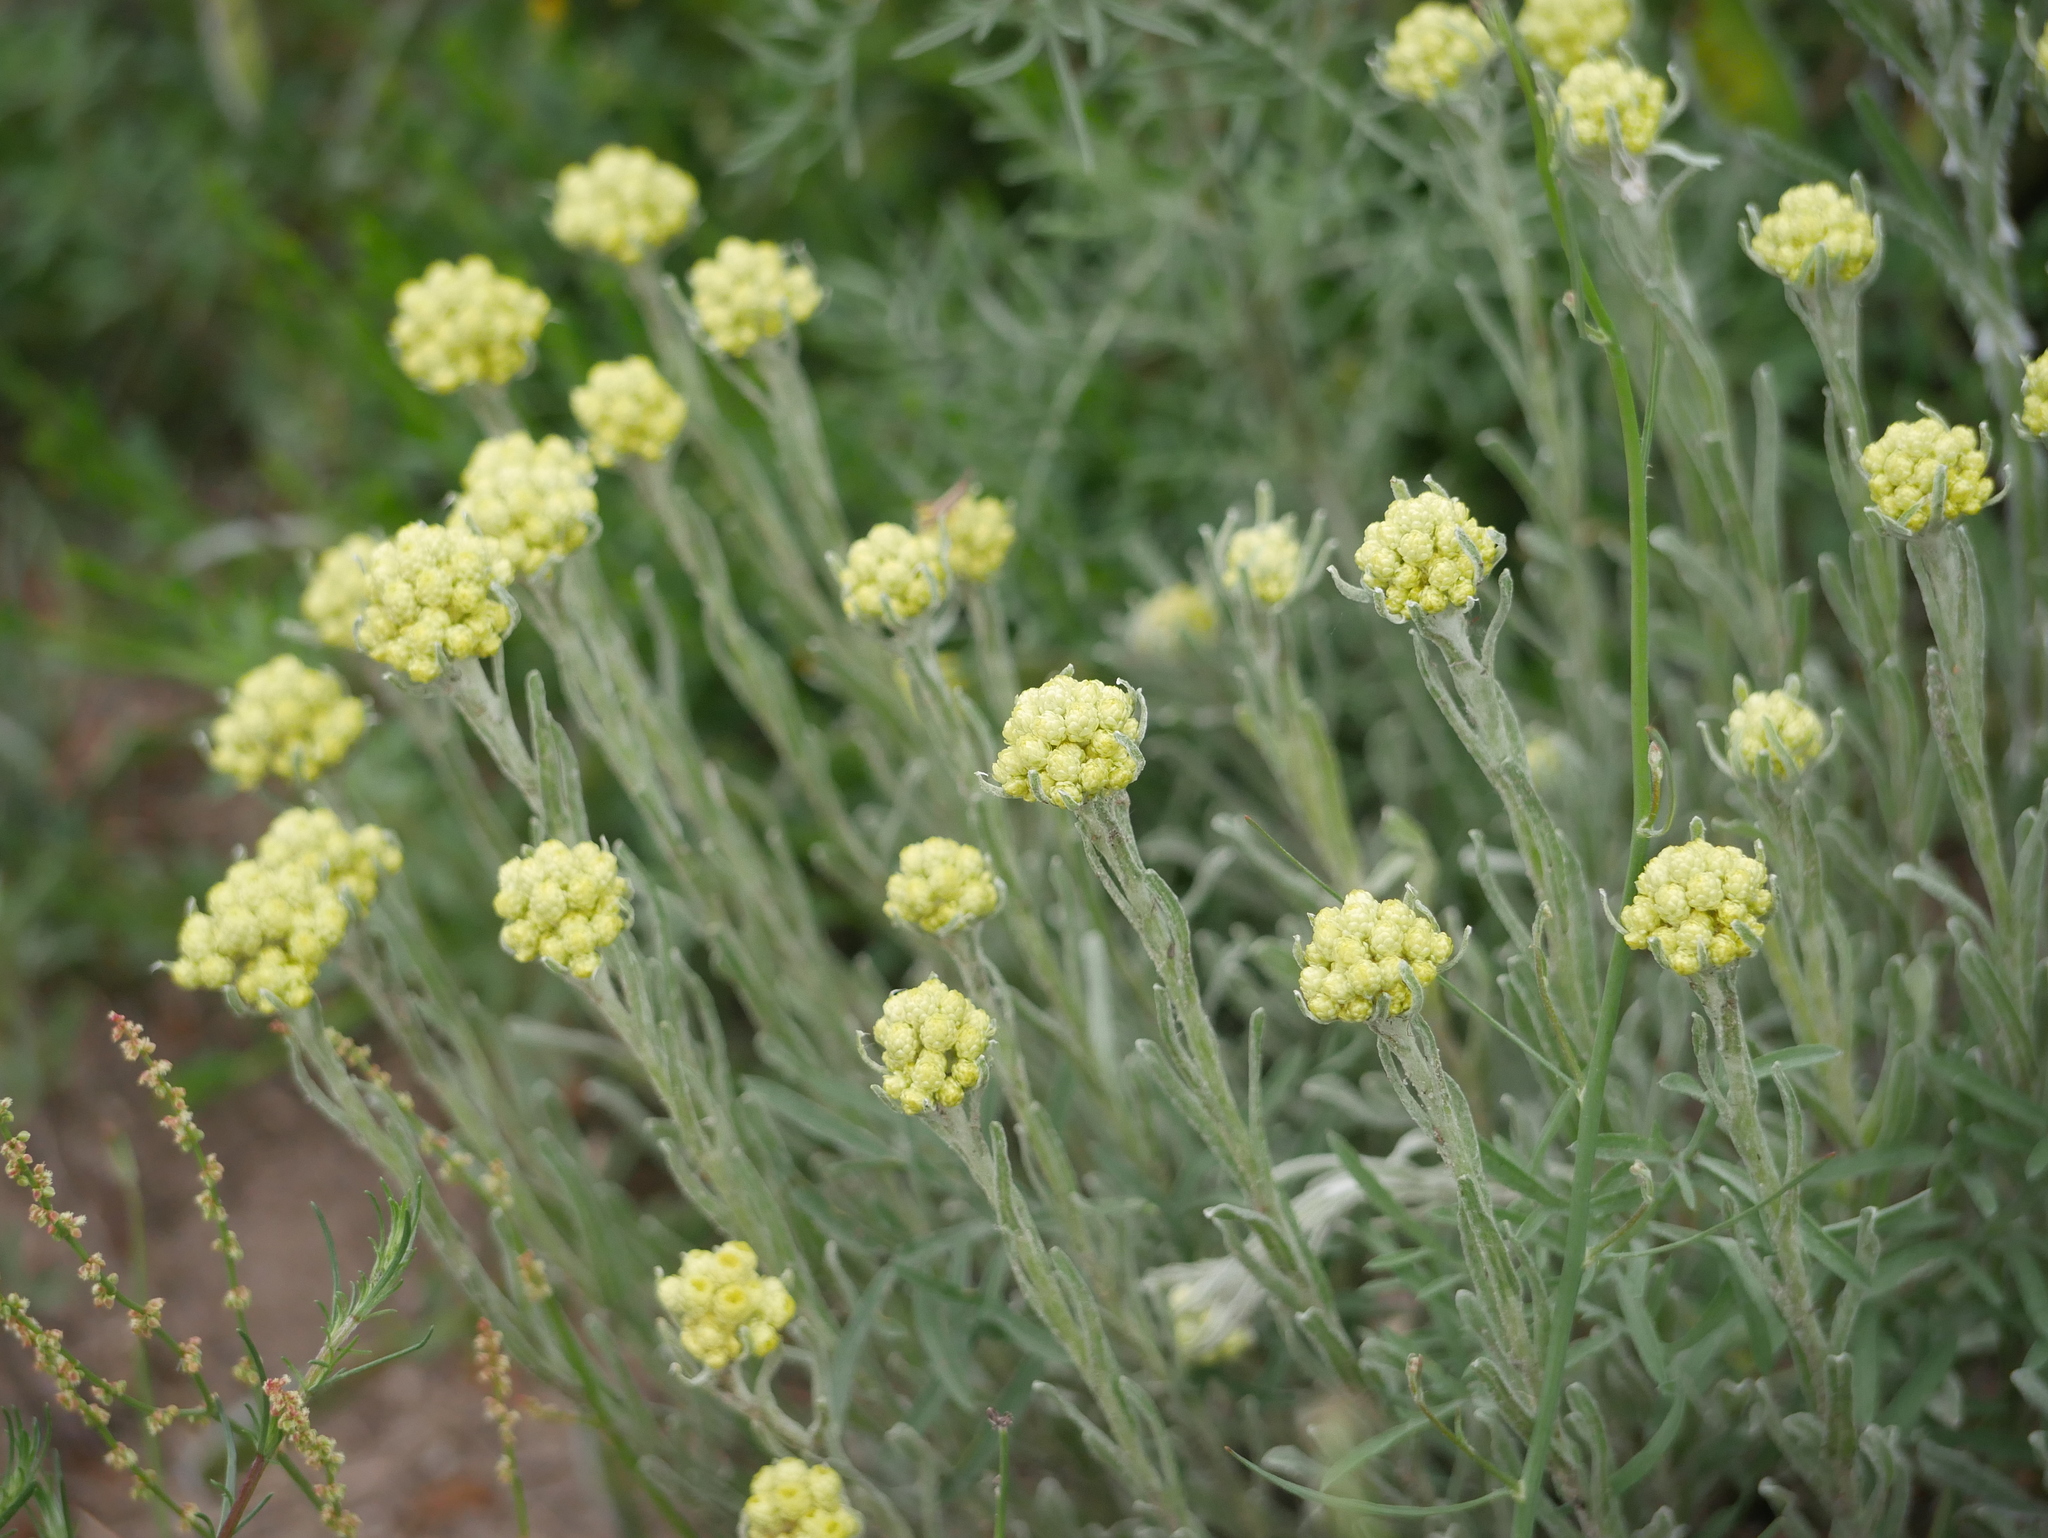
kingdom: Plantae
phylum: Tracheophyta
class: Magnoliopsida
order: Asterales
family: Asteraceae
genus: Helichrysum
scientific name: Helichrysum arenarium
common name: Strawflower
